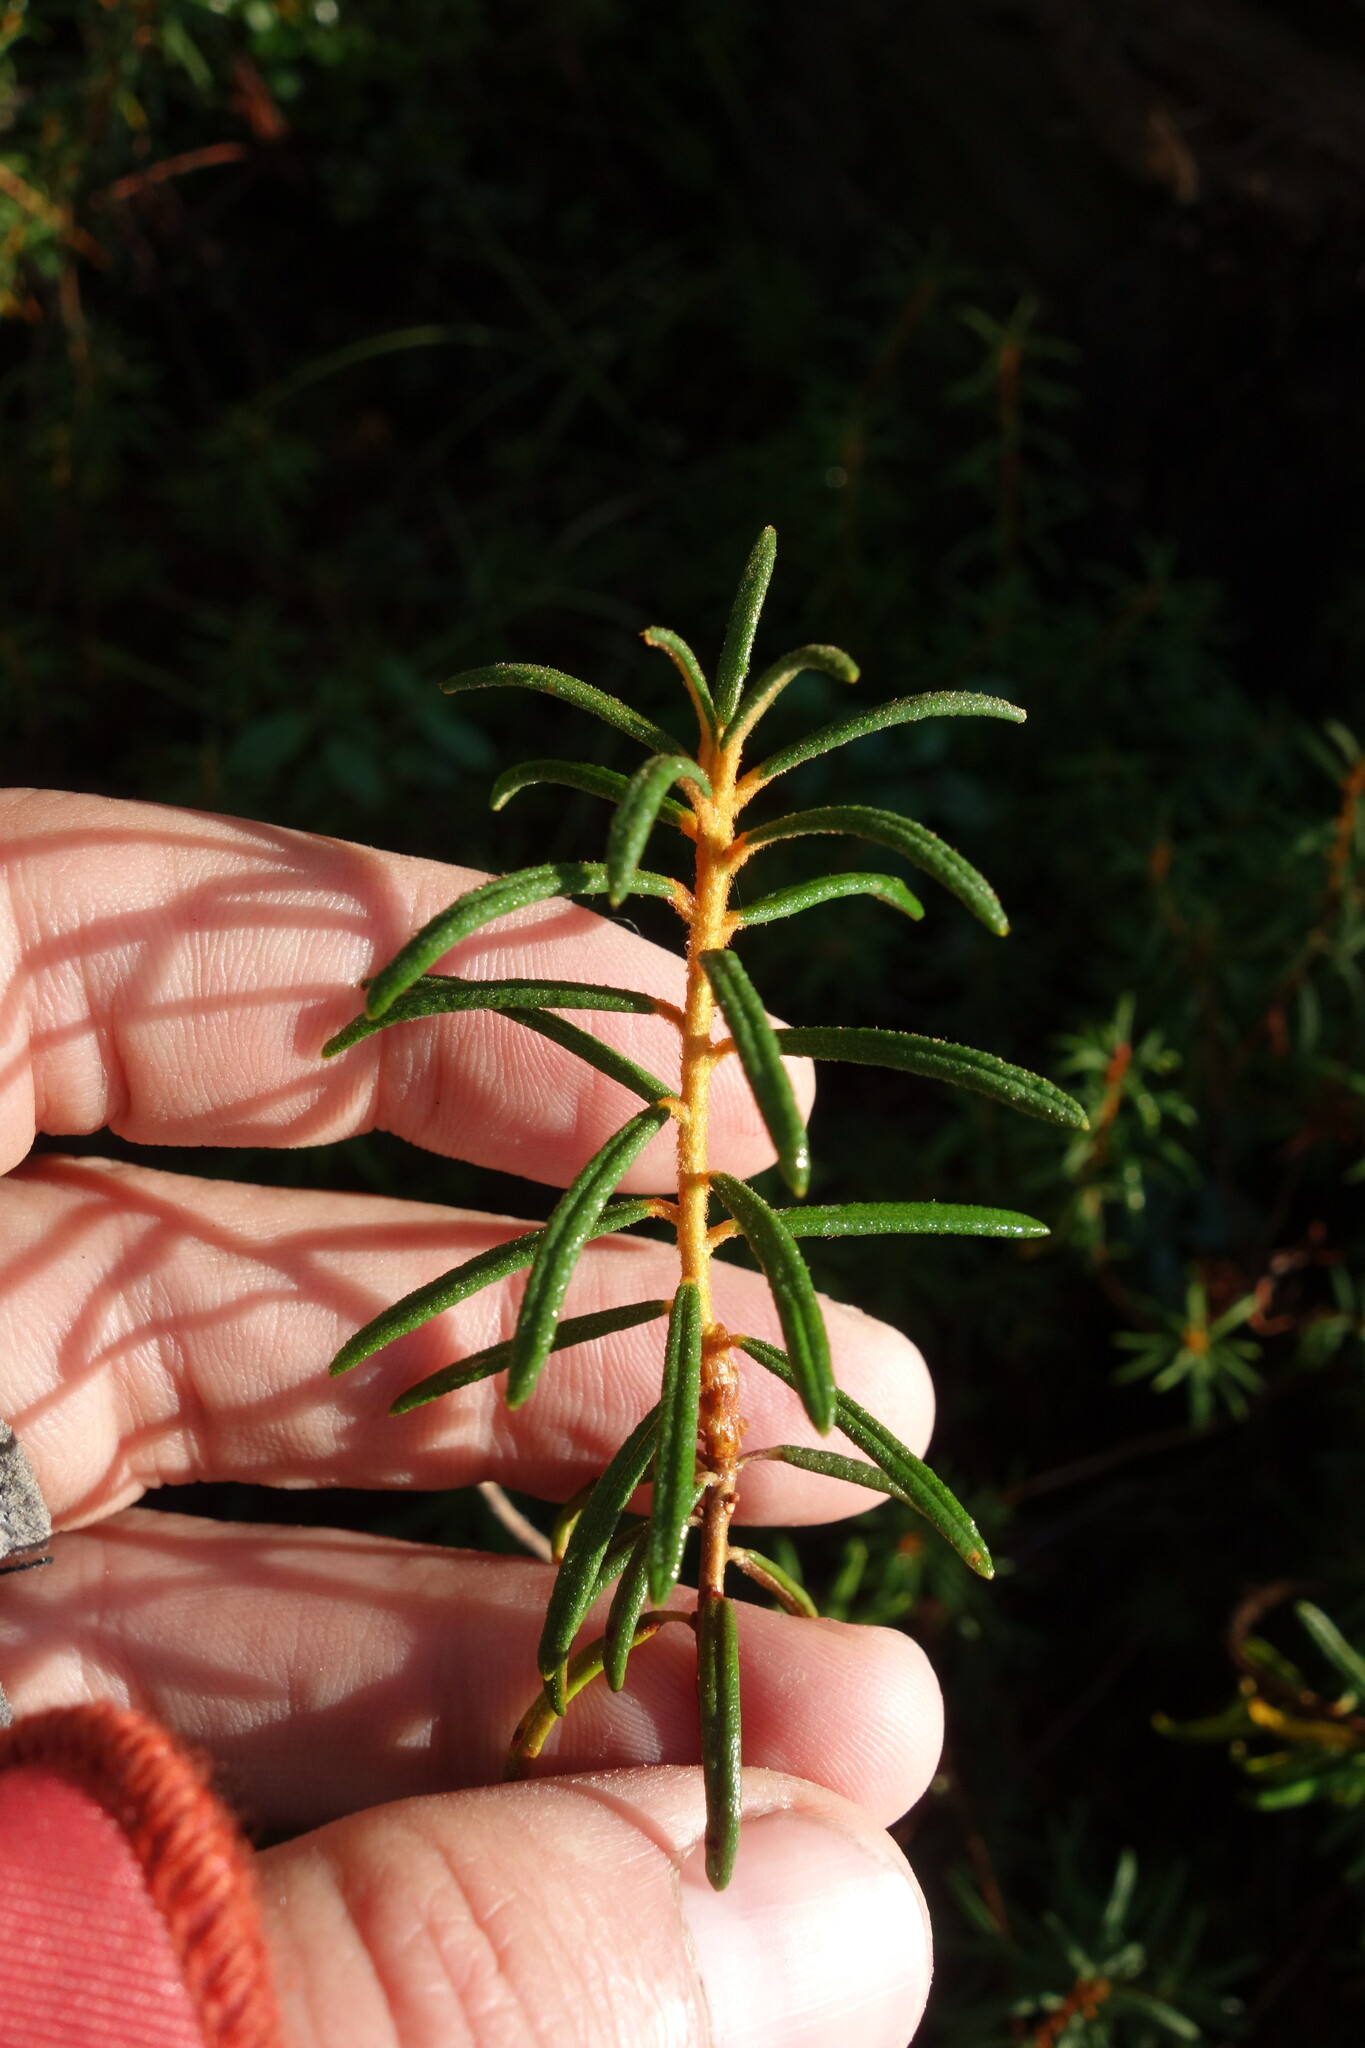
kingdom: Plantae
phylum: Tracheophyta
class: Magnoliopsida
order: Ericales
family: Ericaceae
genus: Rhododendron
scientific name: Rhododendron tomentosum
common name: Marsh labrador tea
